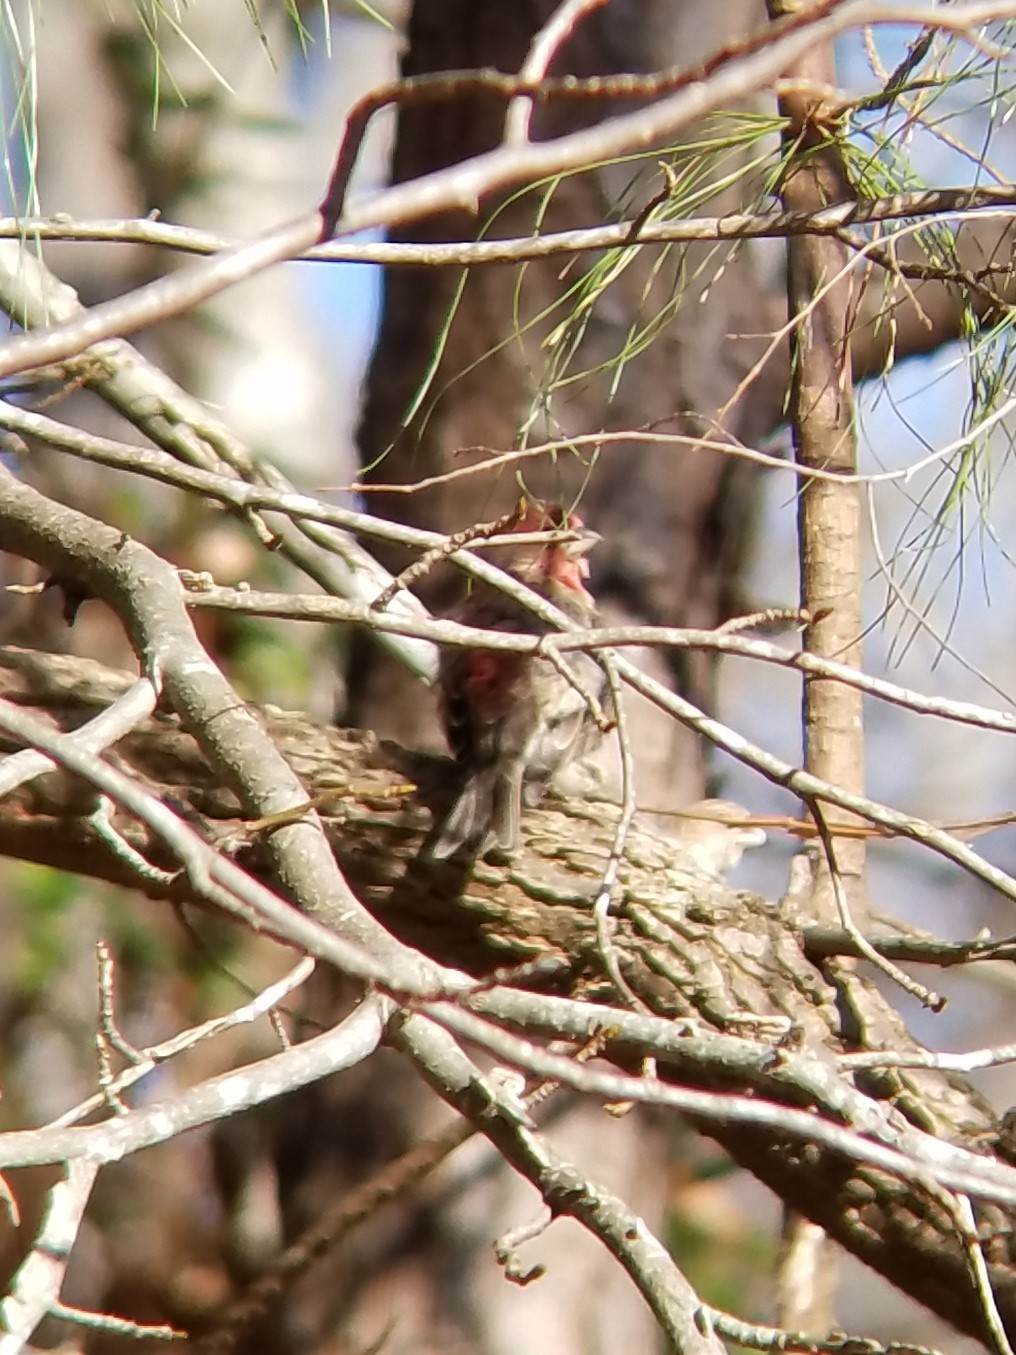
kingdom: Animalia
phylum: Chordata
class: Aves
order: Passeriformes
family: Fringillidae
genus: Haemorhous
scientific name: Haemorhous mexicanus
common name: House finch
